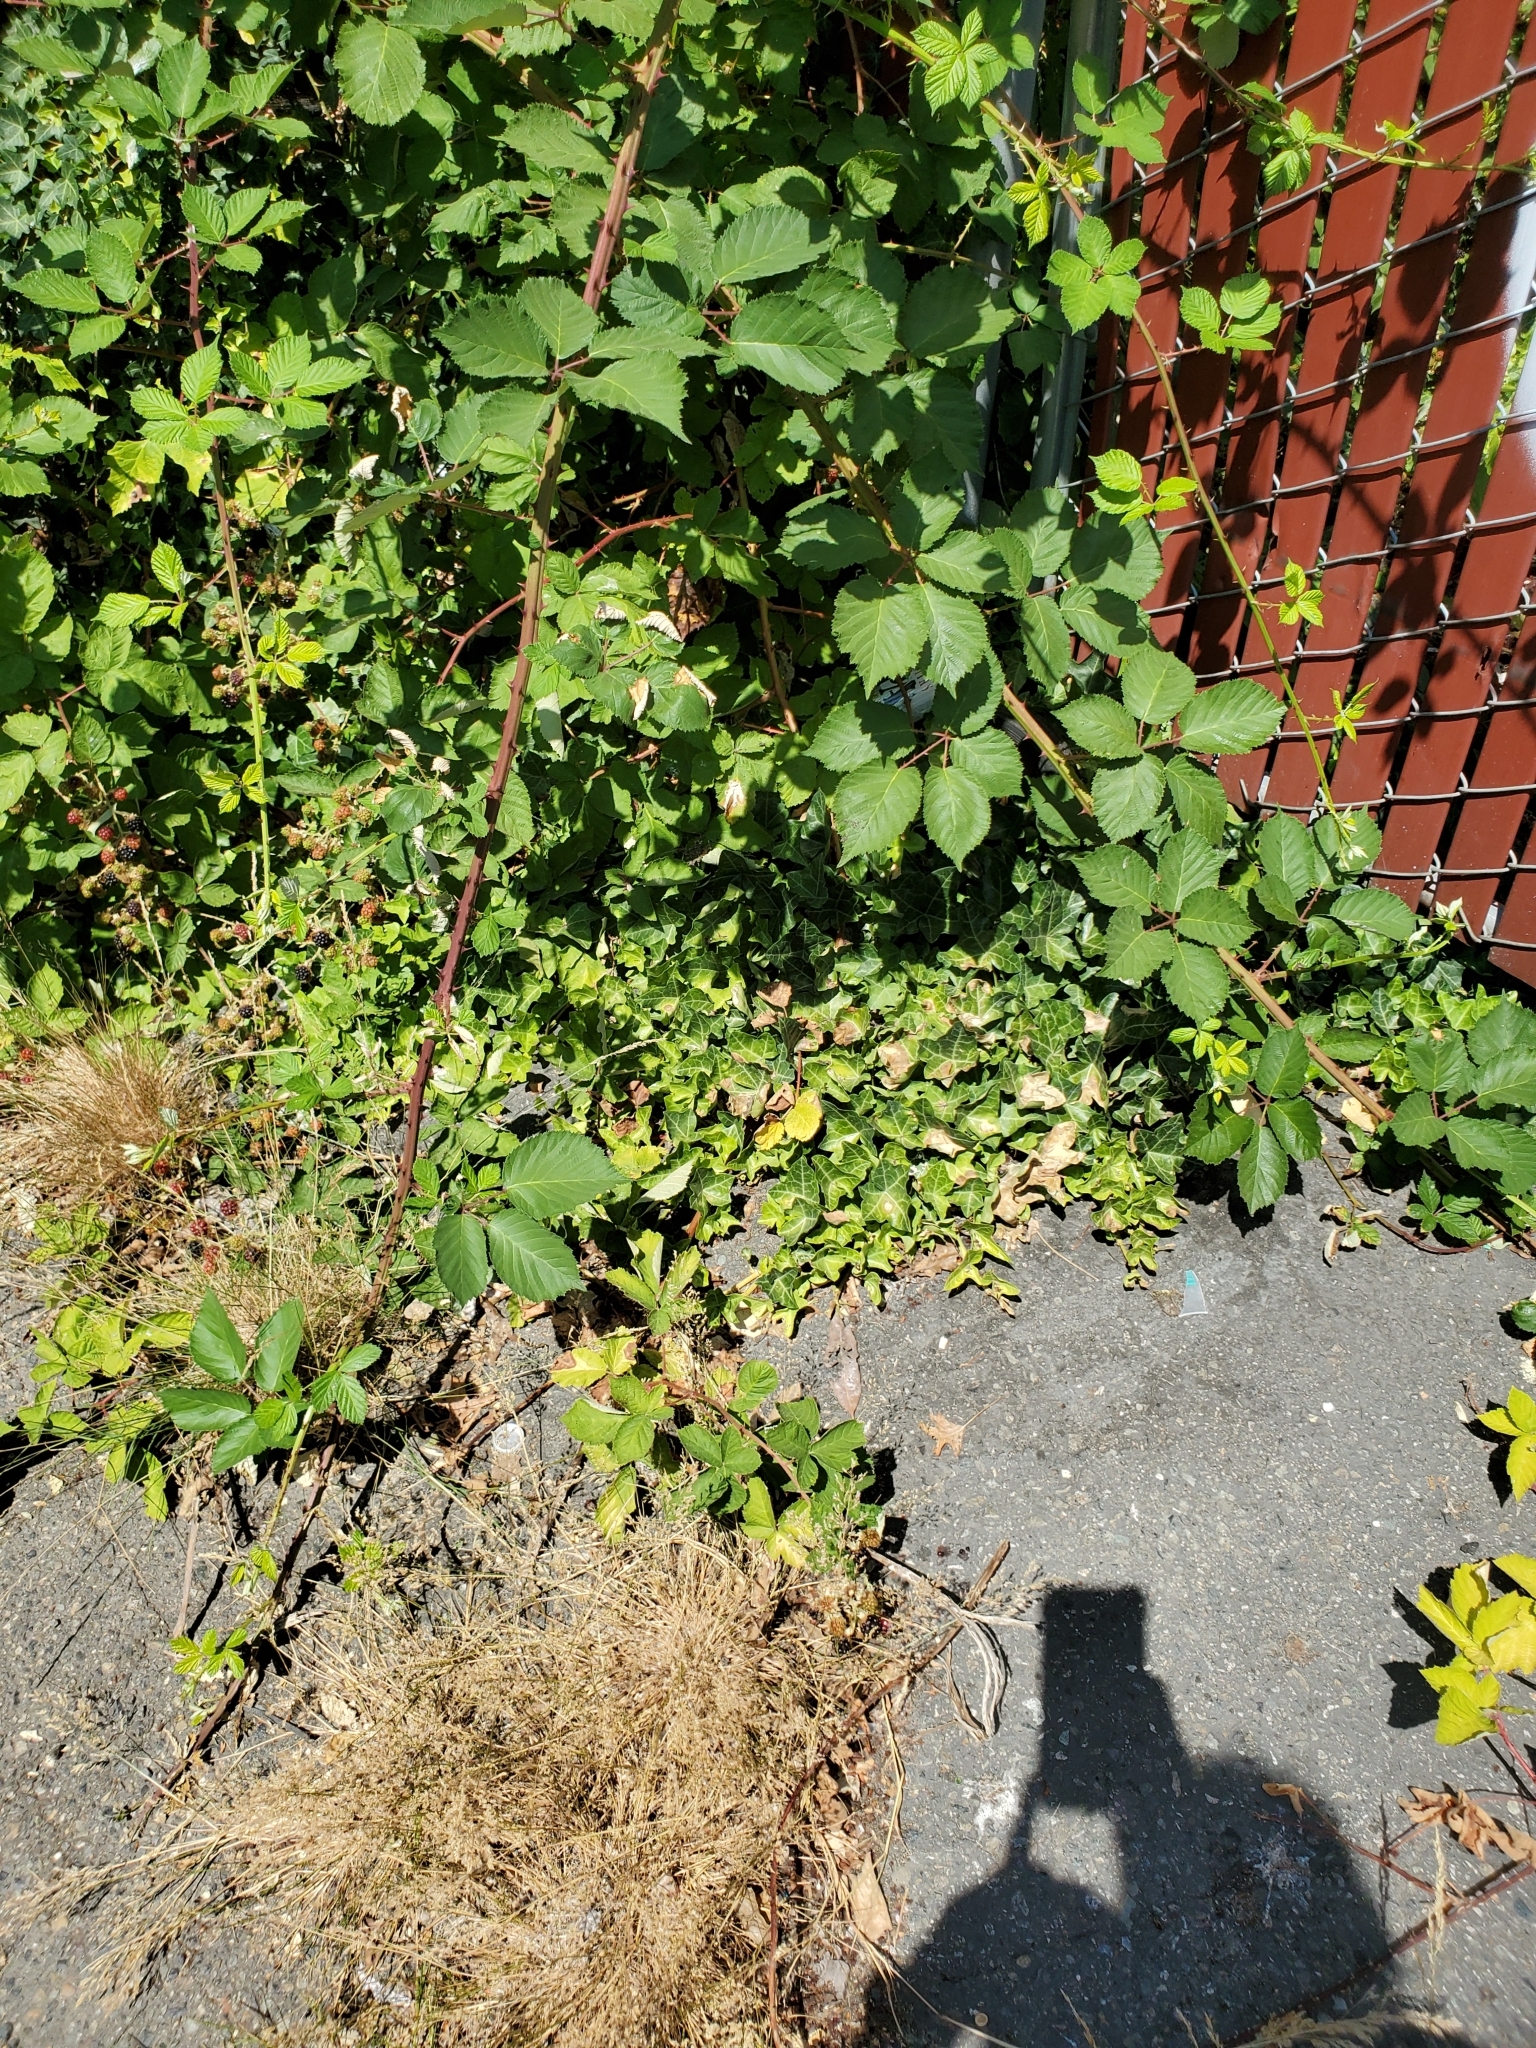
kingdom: Plantae
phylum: Tracheophyta
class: Magnoliopsida
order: Apiales
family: Araliaceae
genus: Hedera
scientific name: Hedera hibernica
